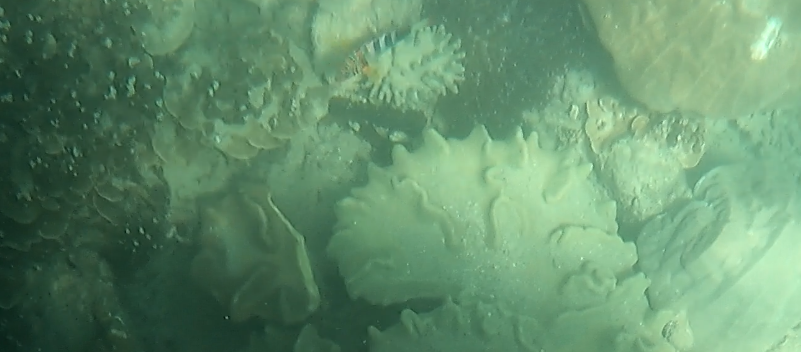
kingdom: Animalia
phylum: Chordata
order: Perciformes
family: Labridae
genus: Choerodon
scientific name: Choerodon fasciatus
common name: Harlequin tuskfish
